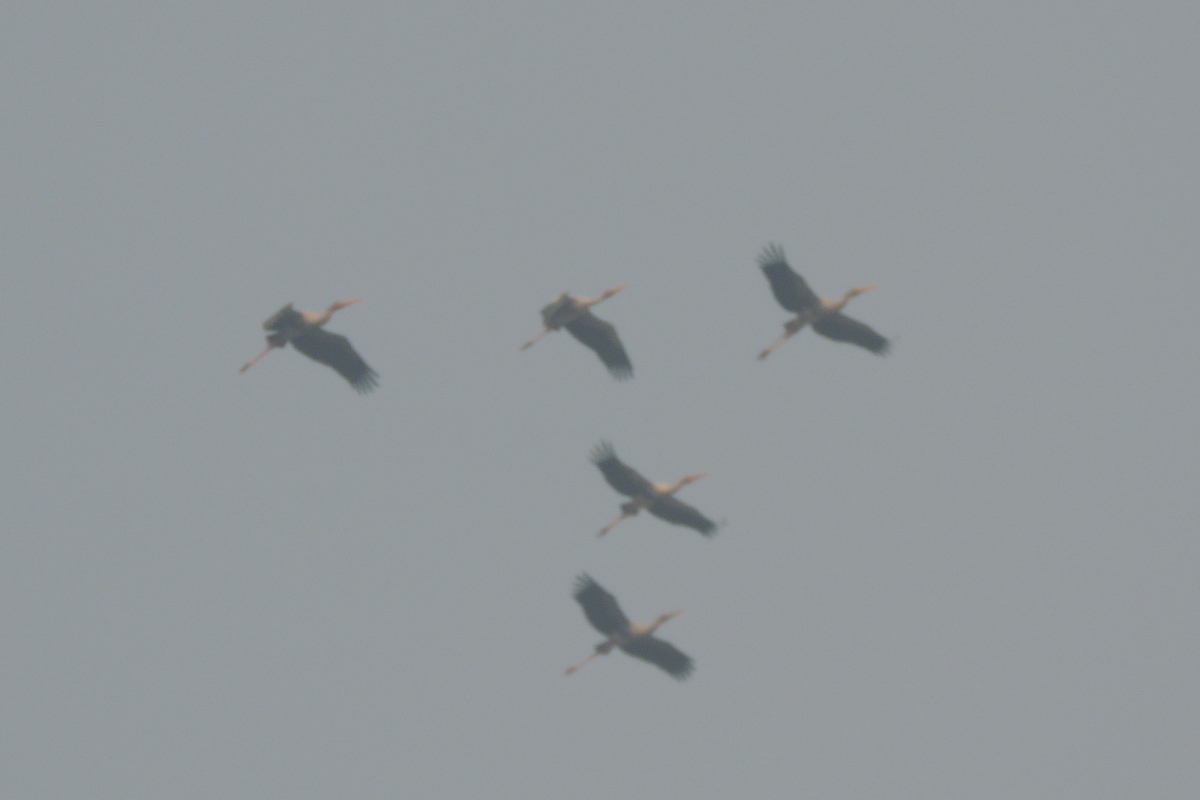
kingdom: Animalia
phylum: Chordata
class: Aves
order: Ciconiiformes
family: Ciconiidae
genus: Mycteria
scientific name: Mycteria leucocephala
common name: Painted stork
